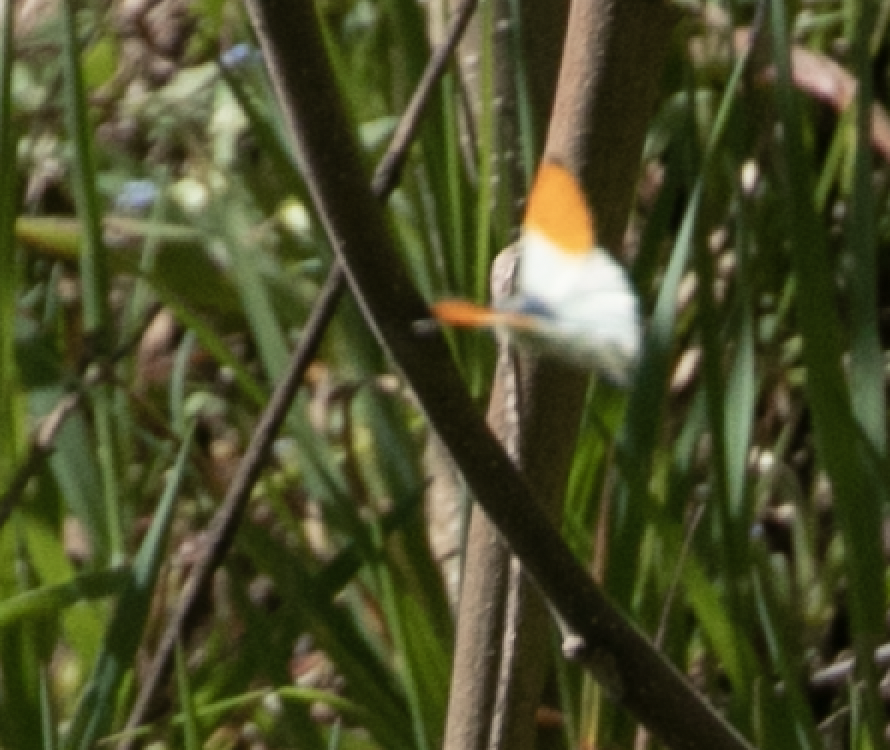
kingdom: Animalia
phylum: Arthropoda
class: Insecta
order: Lepidoptera
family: Pieridae
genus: Anthocharis
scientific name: Anthocharis cardamines
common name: Orange-tip
